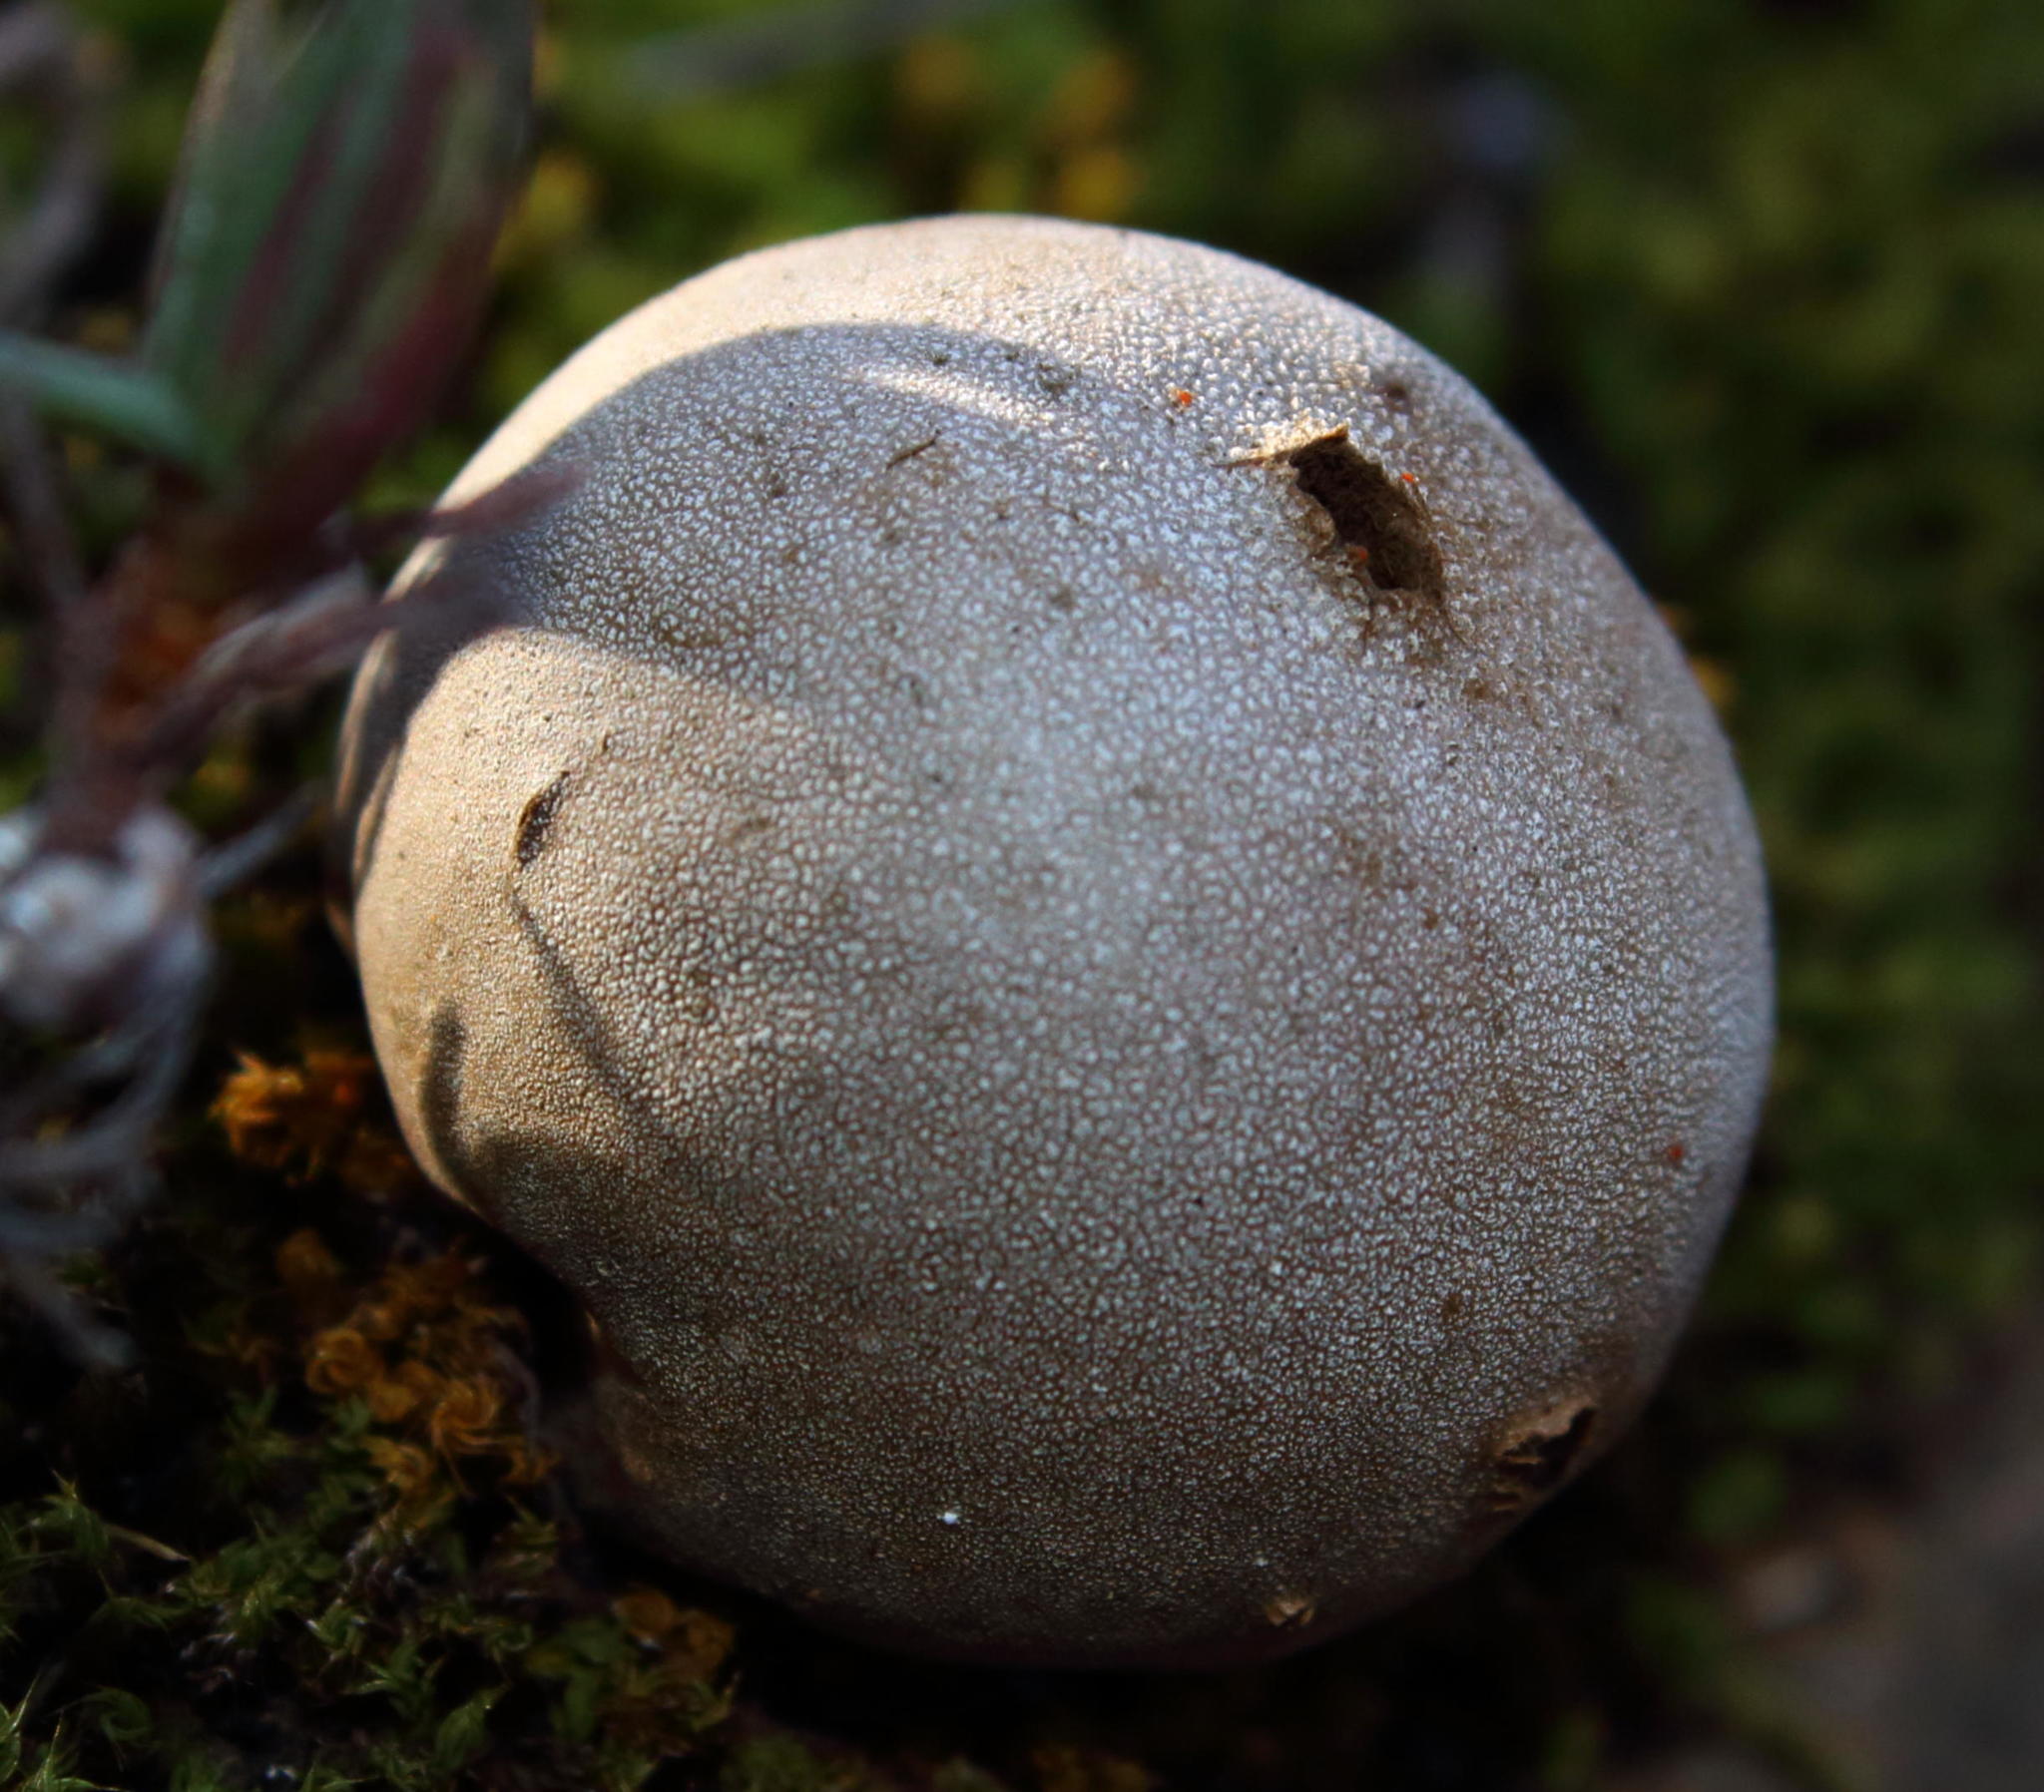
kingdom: Fungi
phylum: Basidiomycota
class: Agaricomycetes
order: Agaricales
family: Lycoperdaceae
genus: Lycoperdon
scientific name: Lycoperdon pratense
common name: Meadow puffball
